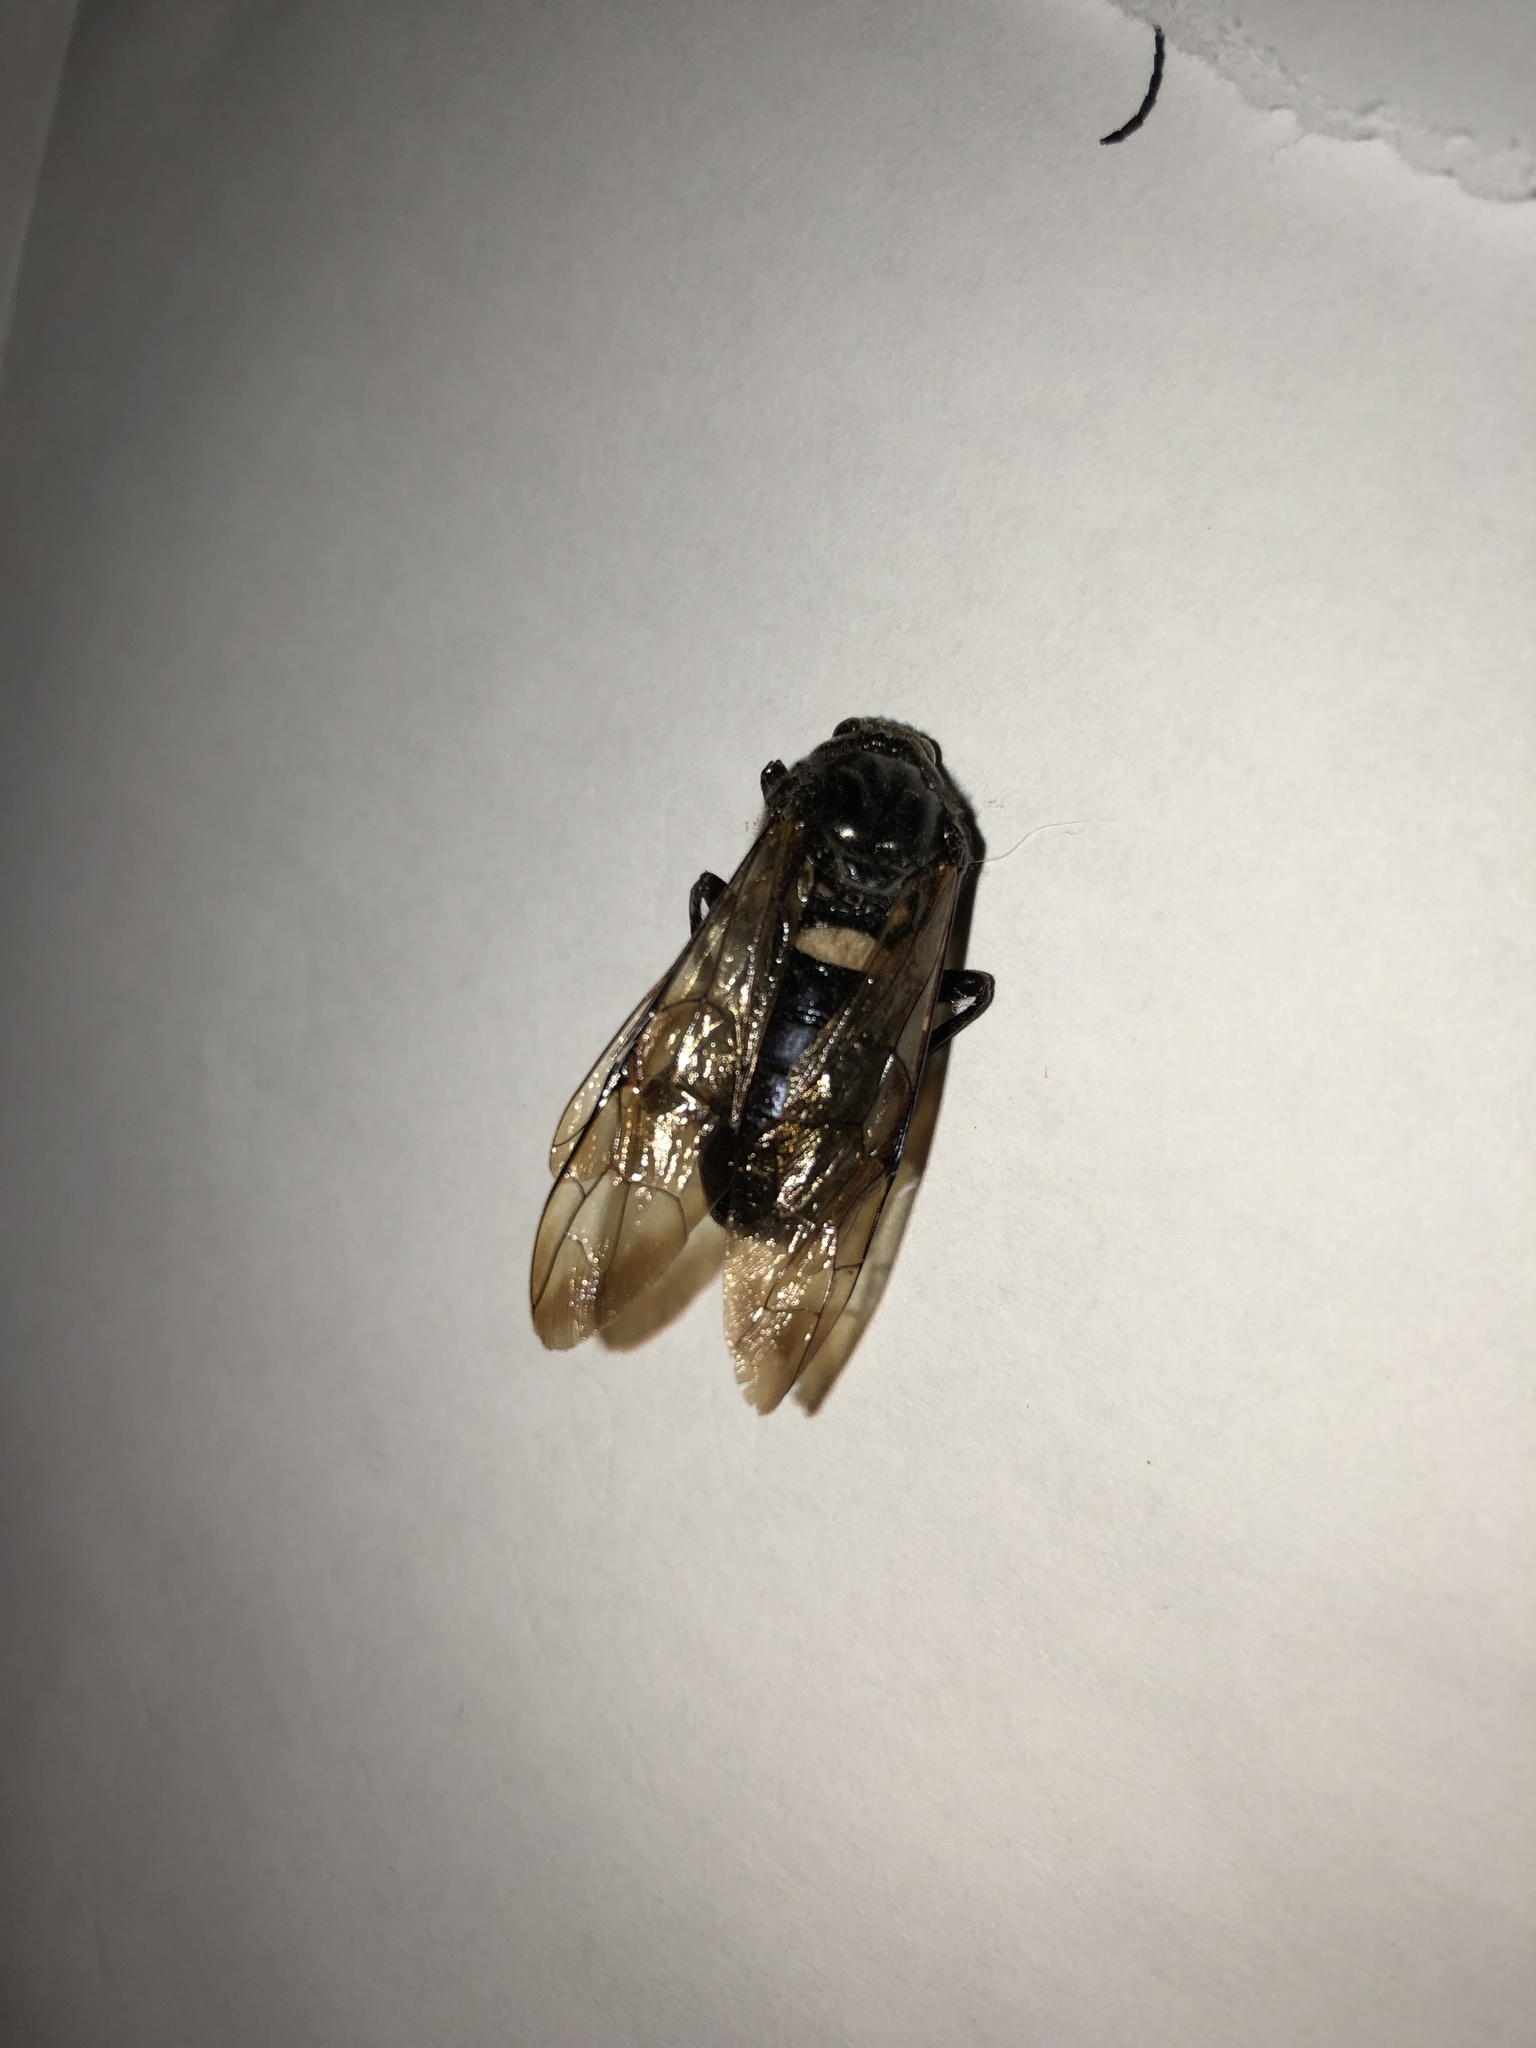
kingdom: Animalia
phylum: Arthropoda
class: Insecta
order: Hymenoptera
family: Cimbicidae
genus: Cimbex
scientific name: Cimbex americana
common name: Elm sawfly
